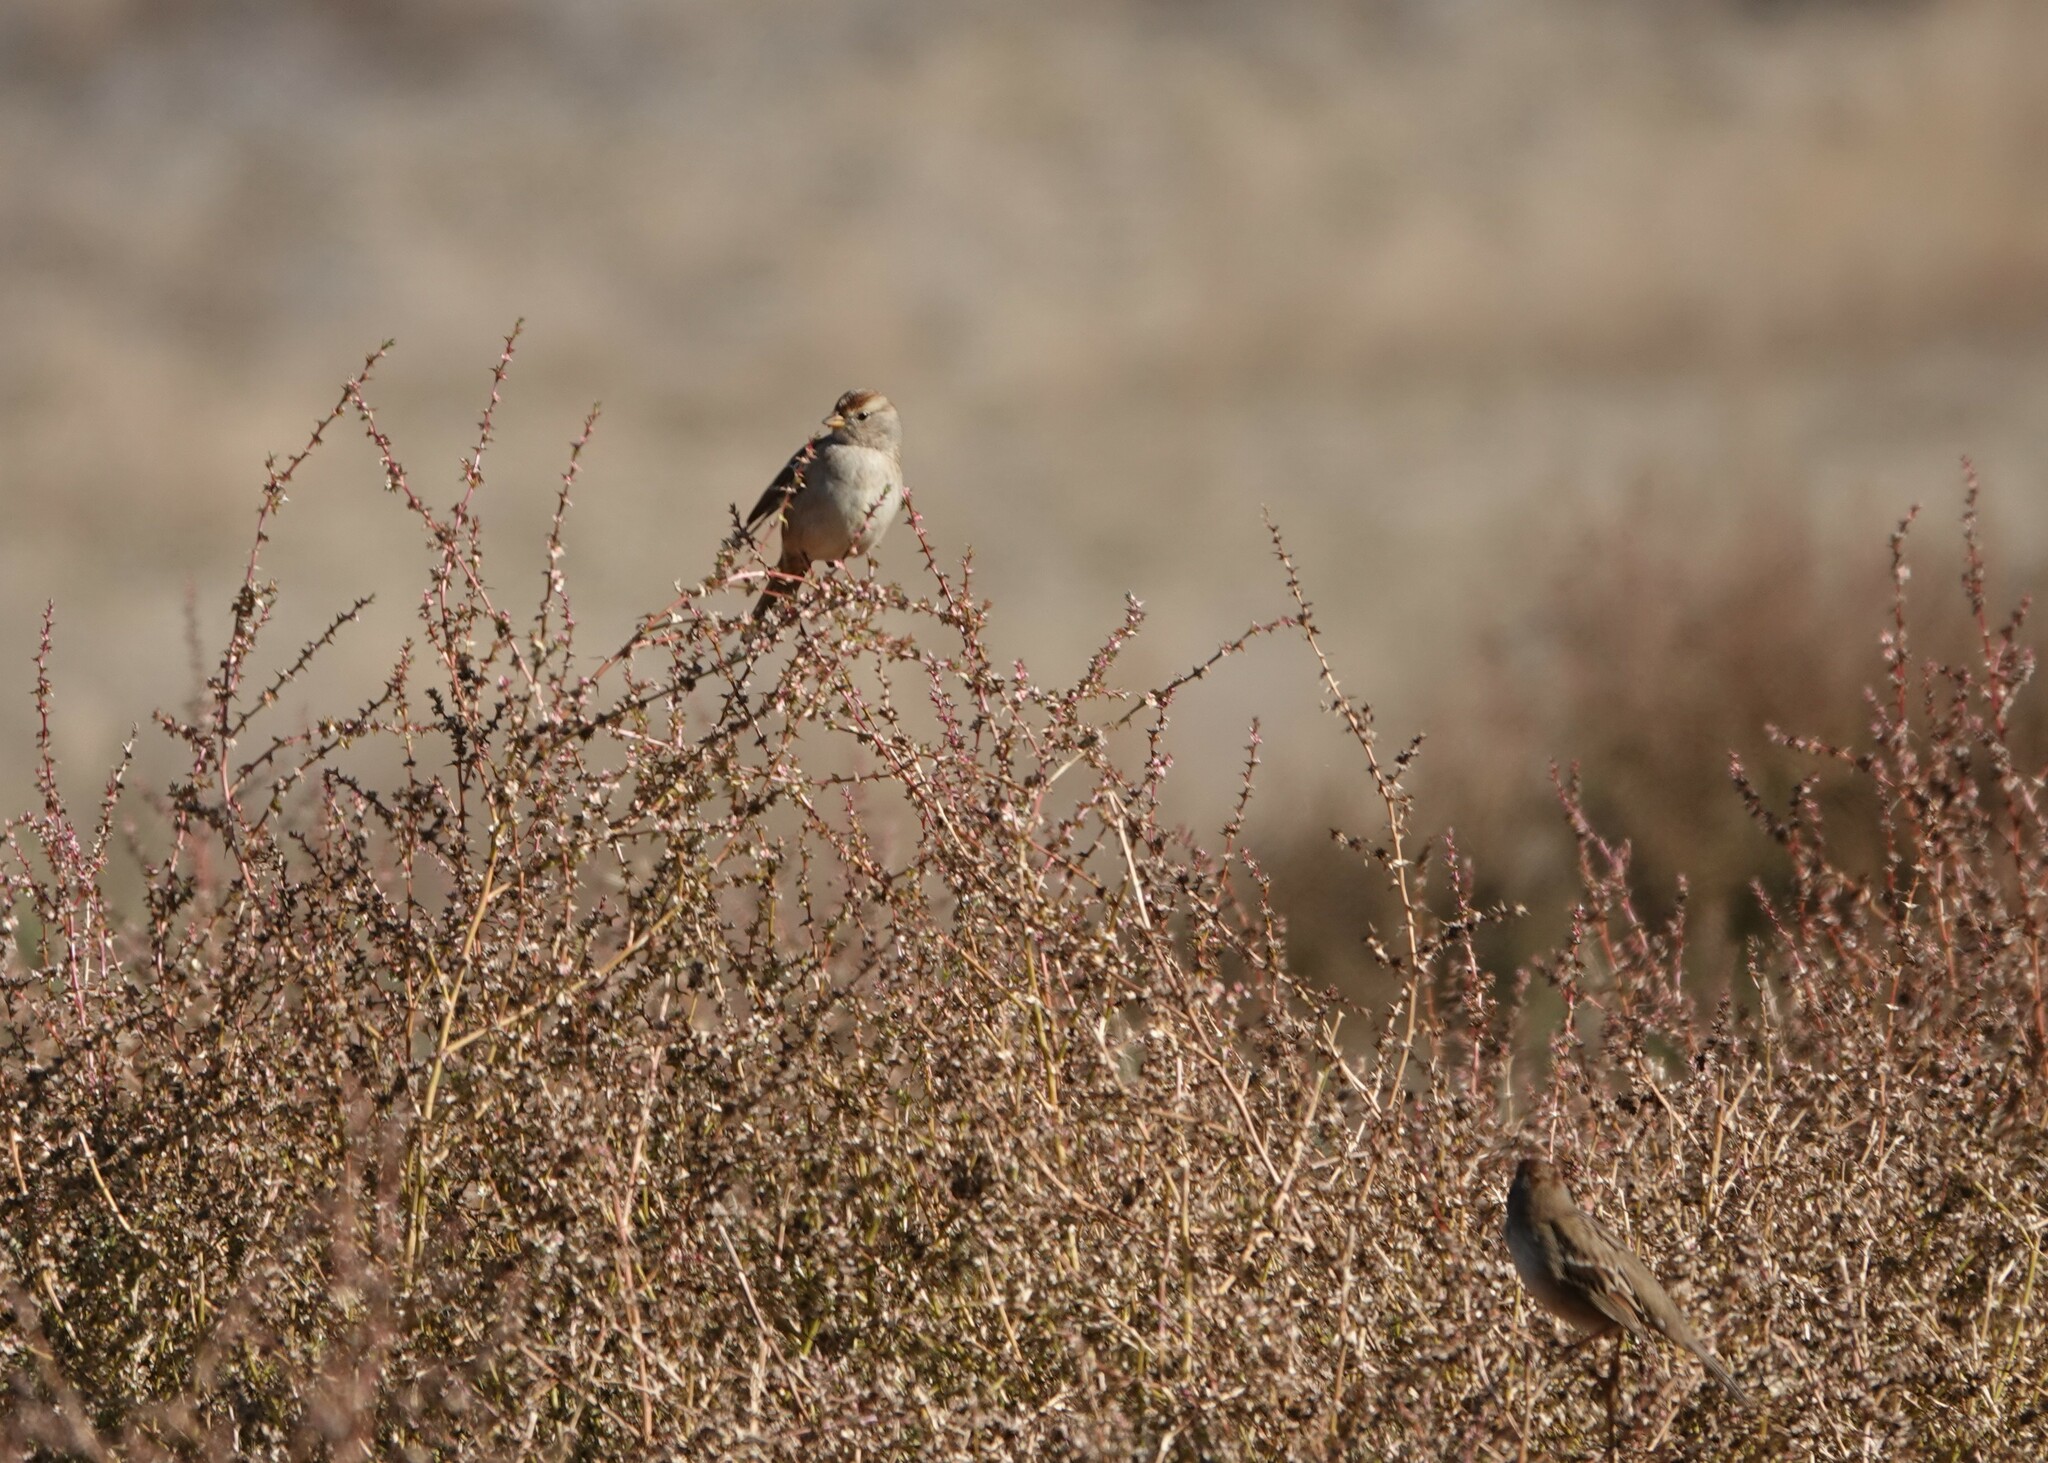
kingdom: Animalia
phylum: Chordata
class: Aves
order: Passeriformes
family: Passerellidae
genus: Zonotrichia
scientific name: Zonotrichia leucophrys
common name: White-crowned sparrow
